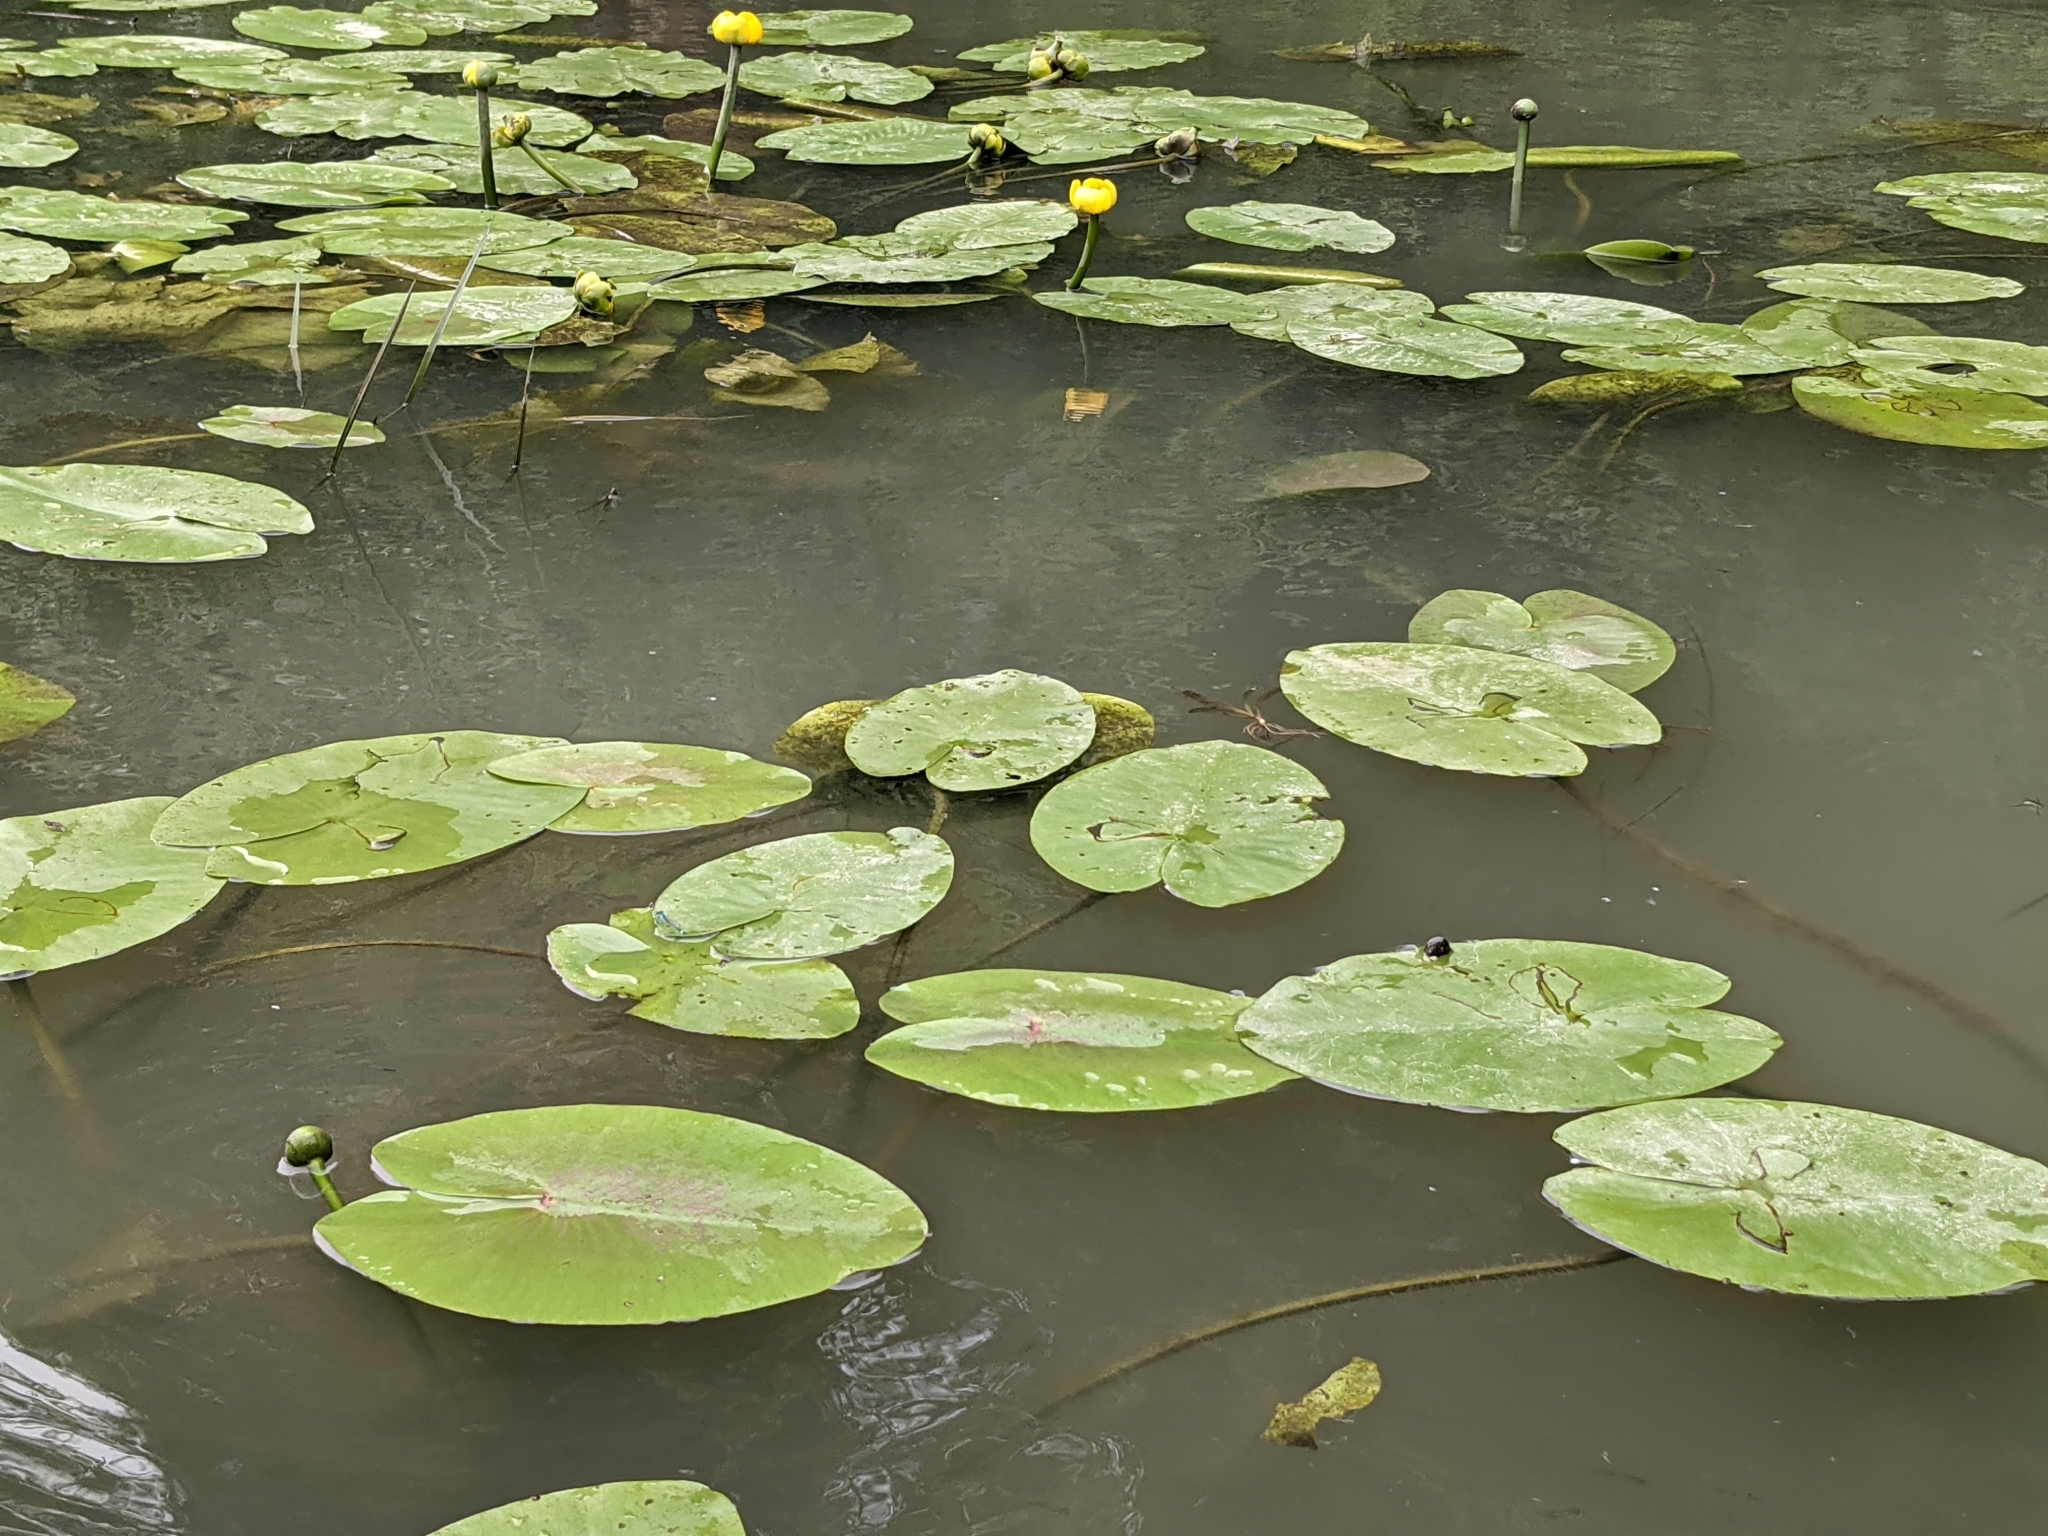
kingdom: Plantae
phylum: Tracheophyta
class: Magnoliopsida
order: Nymphaeales
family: Nymphaeaceae
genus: Nuphar
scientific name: Nuphar lutea
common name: Yellow water-lily
